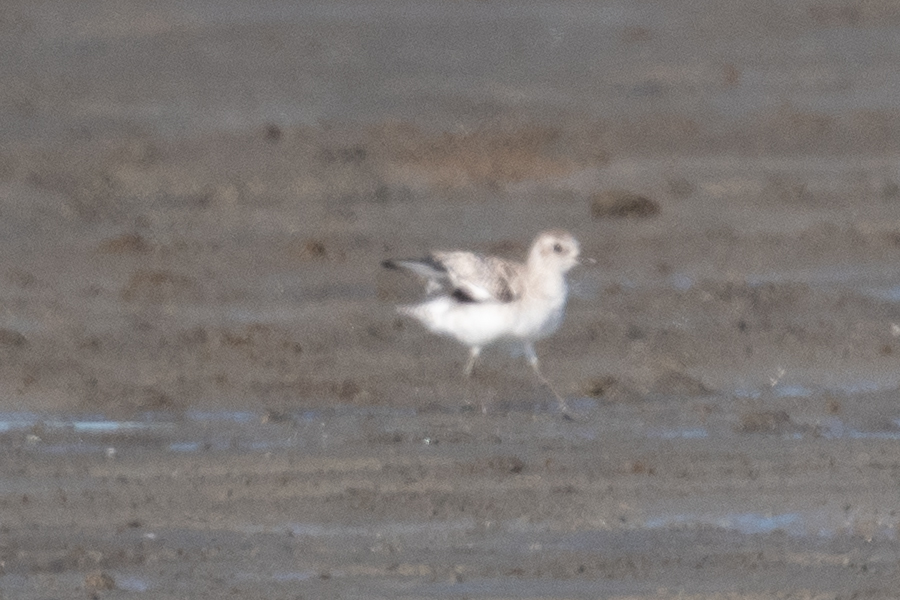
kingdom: Animalia
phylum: Chordata
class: Aves
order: Charadriiformes
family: Charadriidae
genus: Pluvialis
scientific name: Pluvialis squatarola
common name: Grey plover
